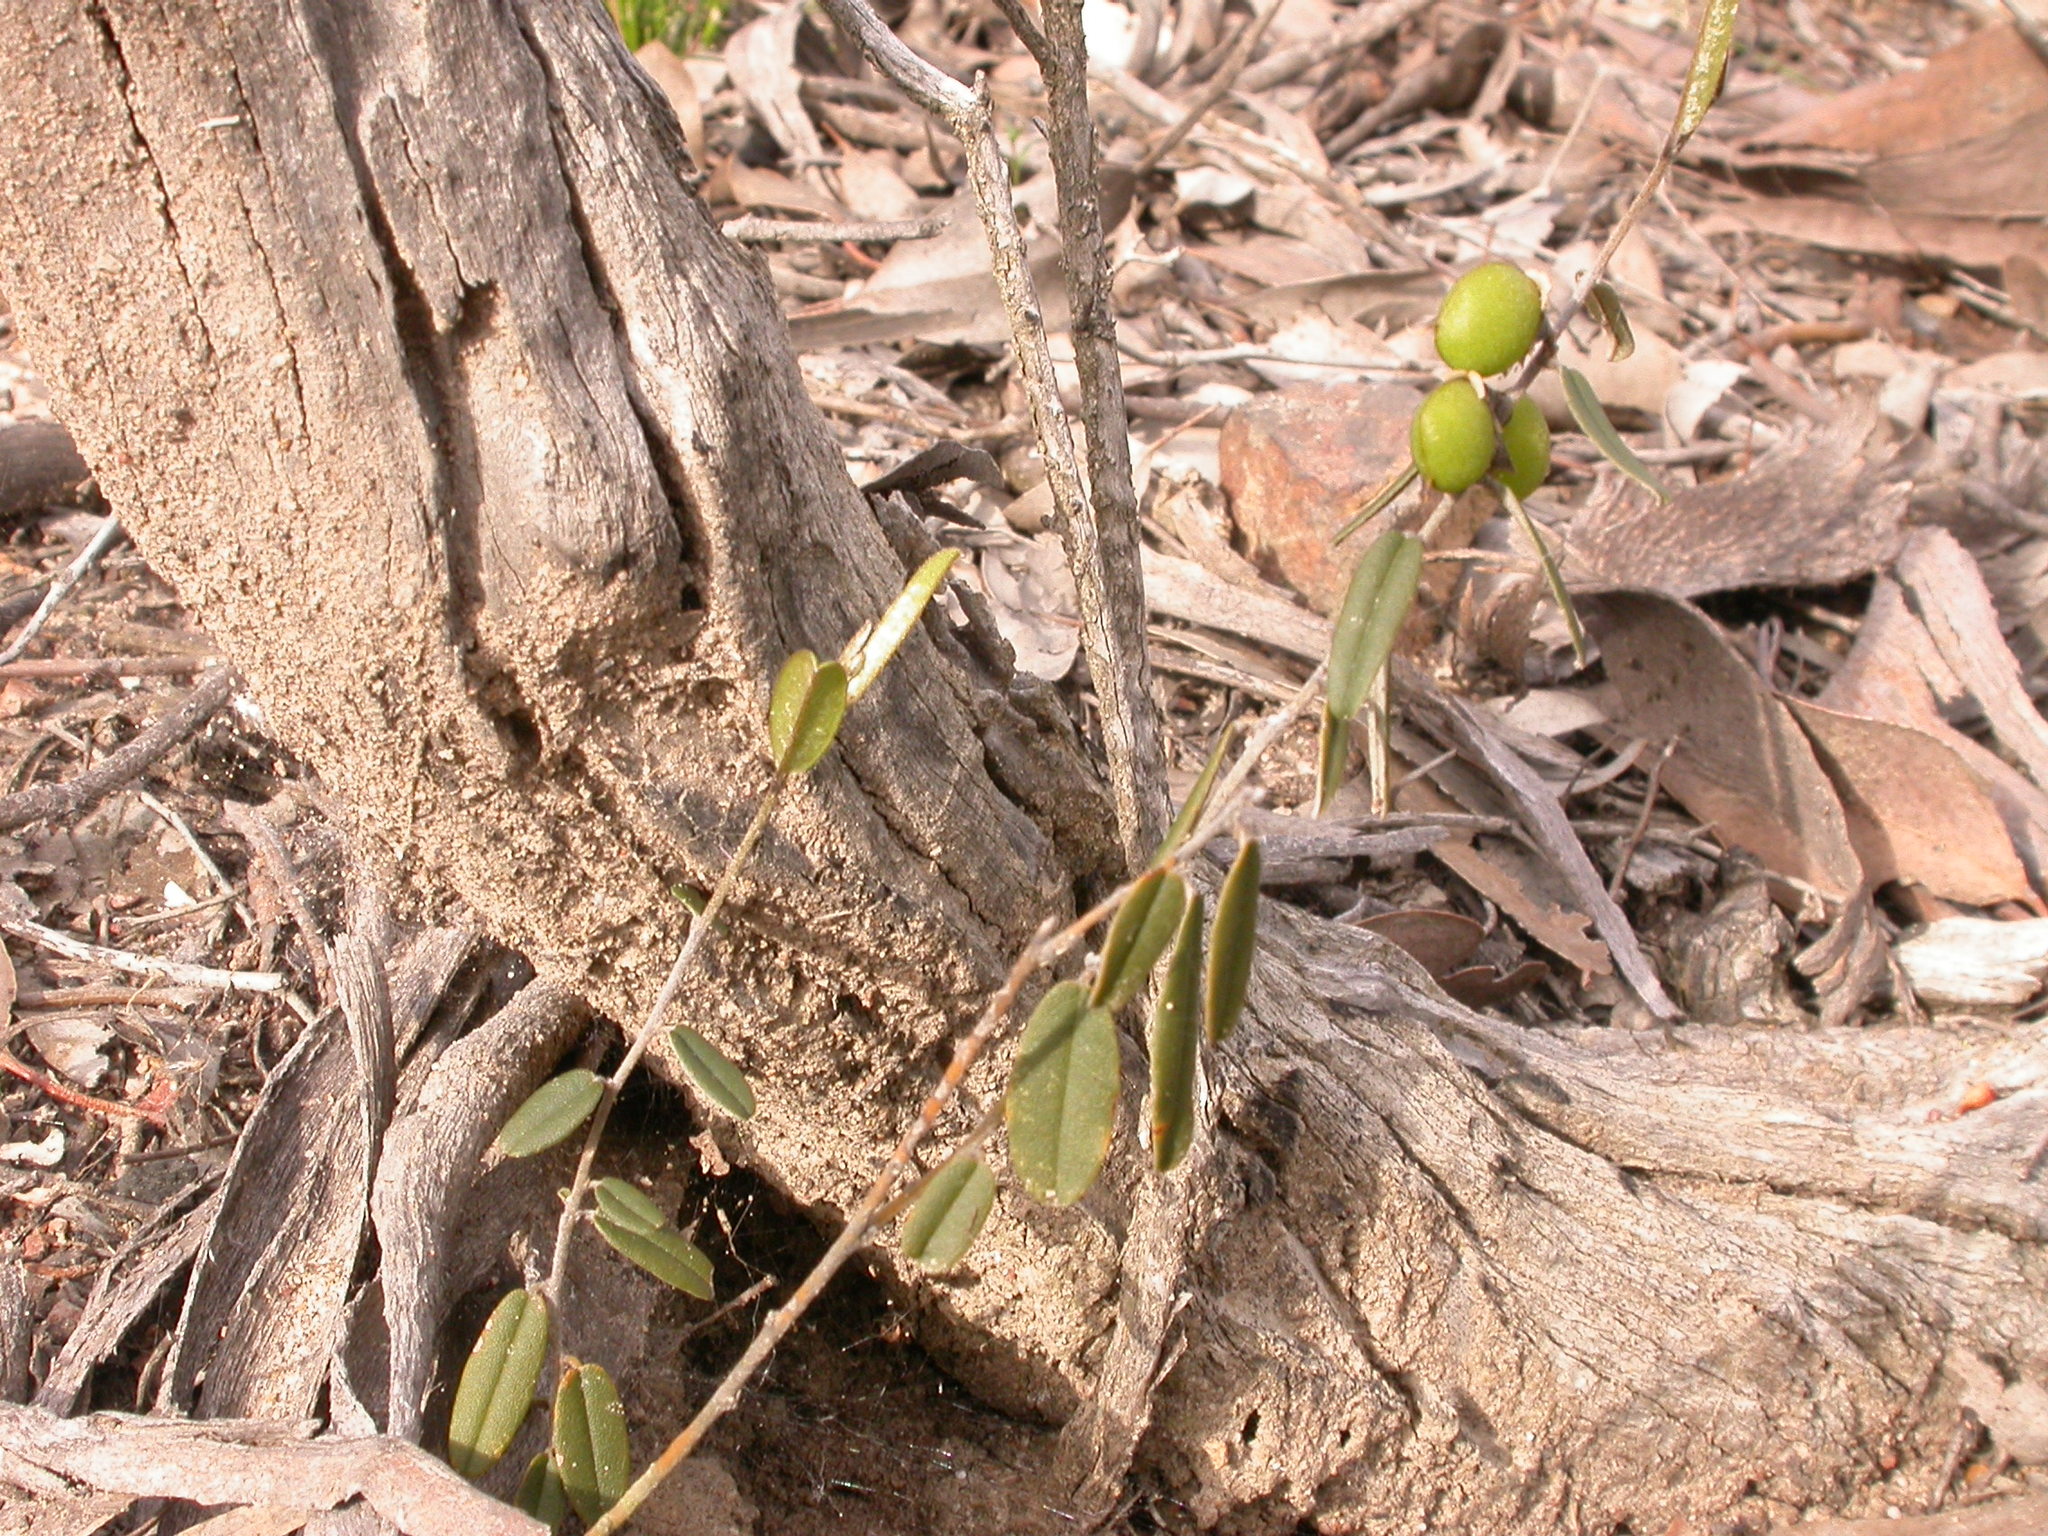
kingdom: Plantae
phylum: Tracheophyta
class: Magnoliopsida
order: Fabales
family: Fabaceae
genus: Hovea
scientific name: Hovea heterophylla
